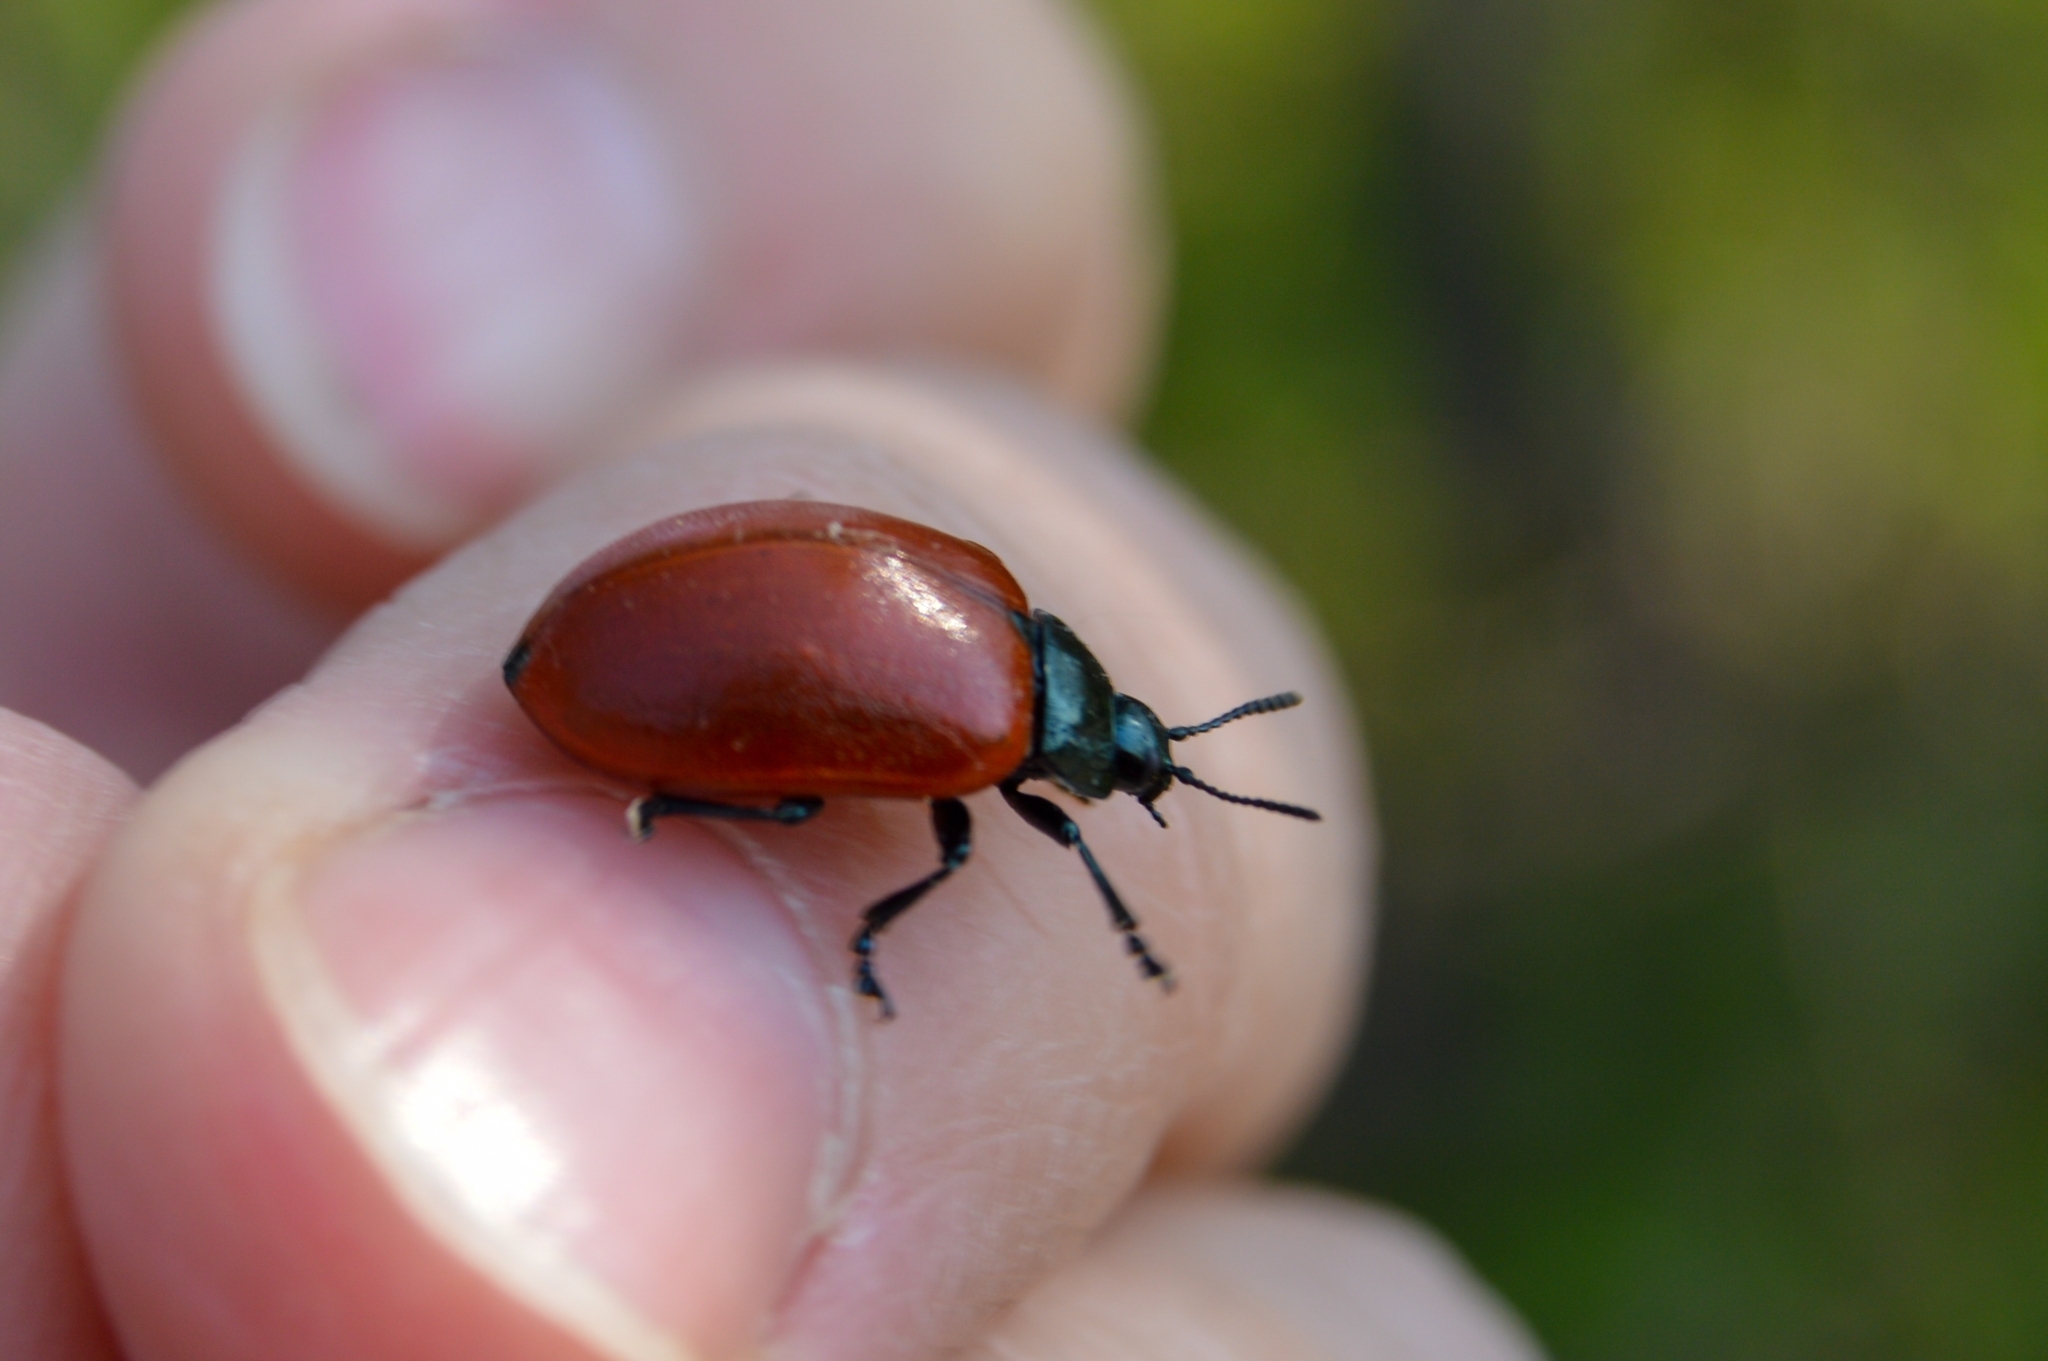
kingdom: Animalia
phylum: Arthropoda
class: Insecta
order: Coleoptera
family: Chrysomelidae
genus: Chrysomela
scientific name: Chrysomela populi
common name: Red poplar leaf beetle
